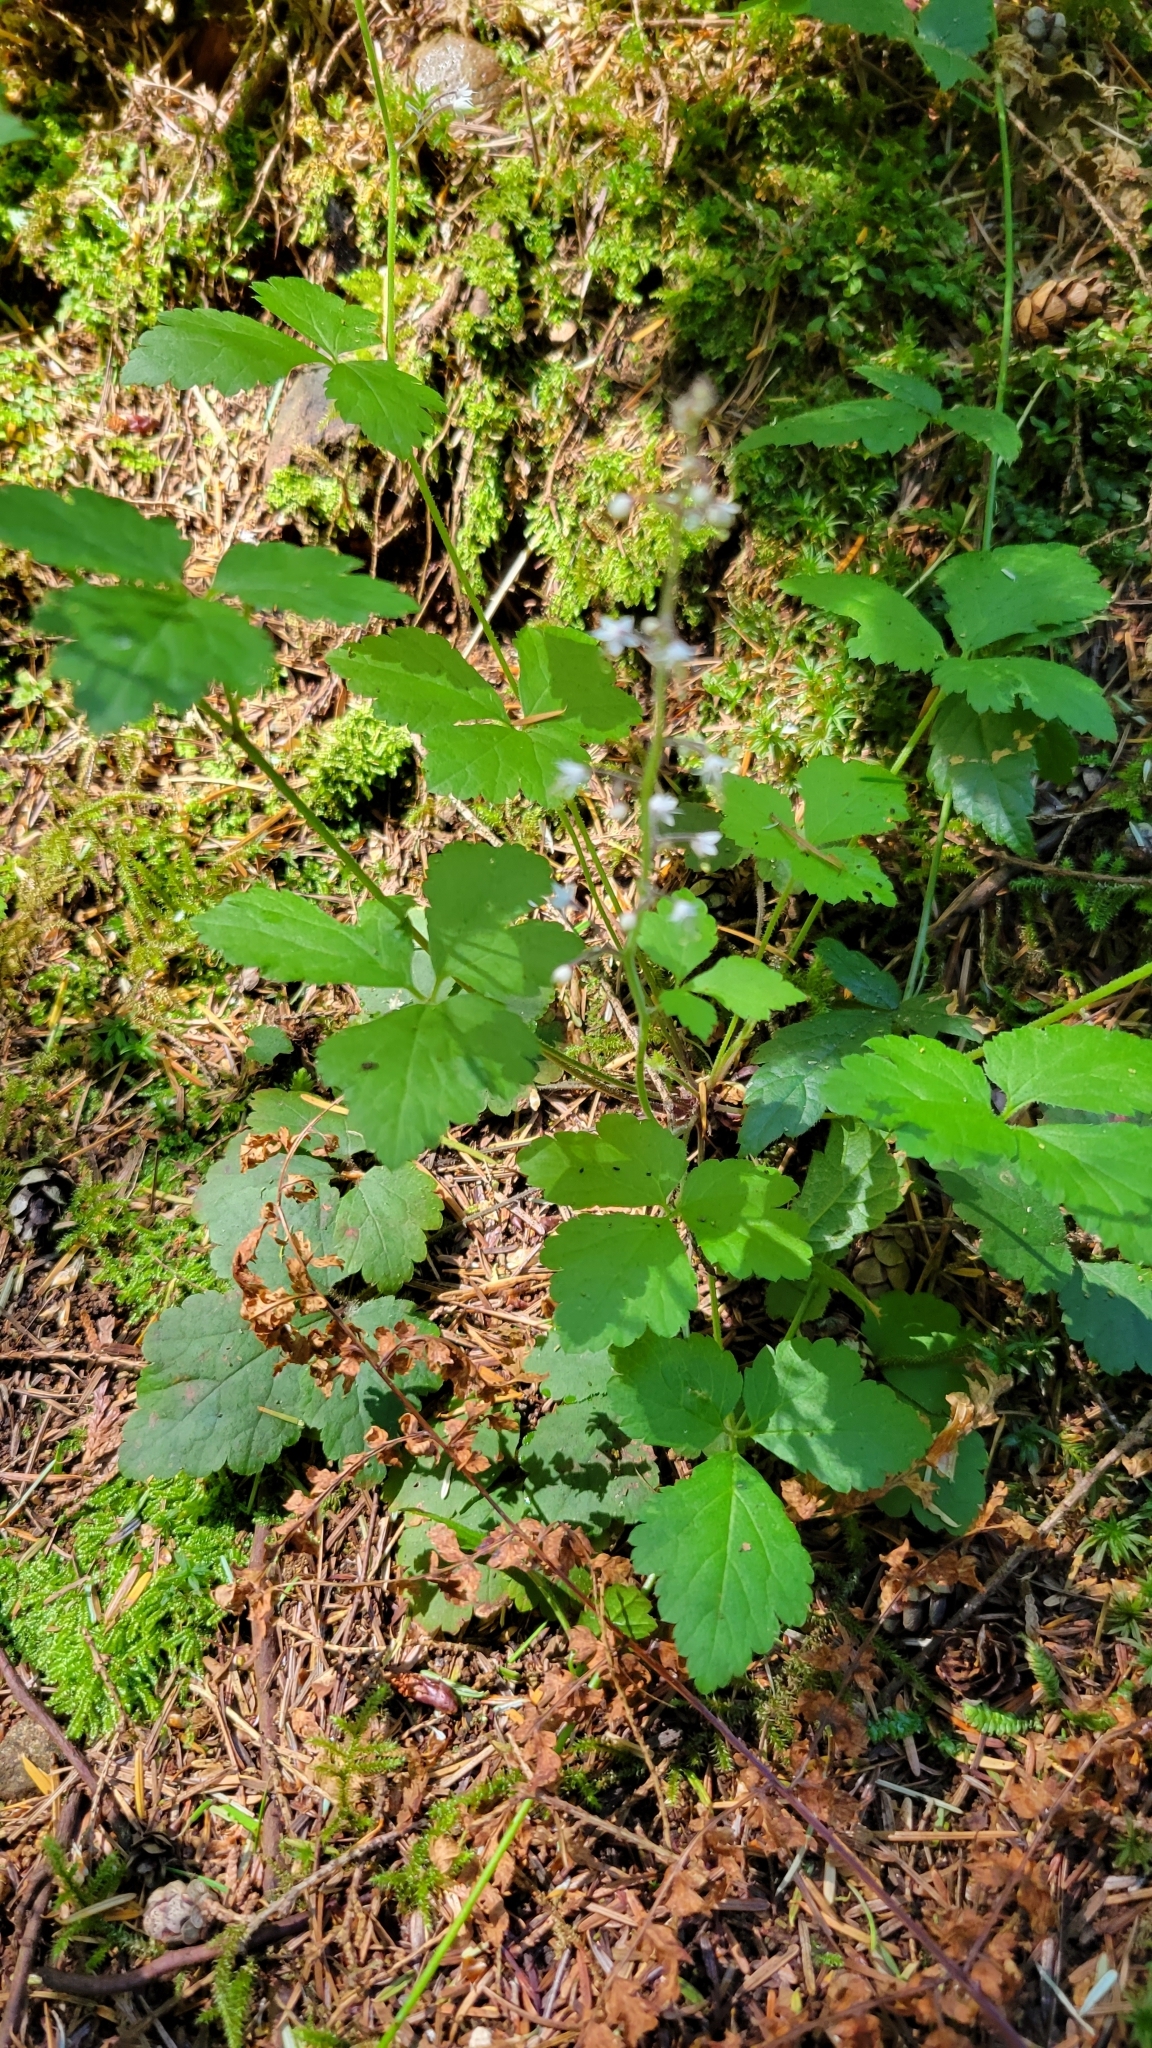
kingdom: Plantae
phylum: Tracheophyta
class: Magnoliopsida
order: Saxifragales
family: Saxifragaceae
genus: Tiarella
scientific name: Tiarella trifoliata
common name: Sugar-scoop
